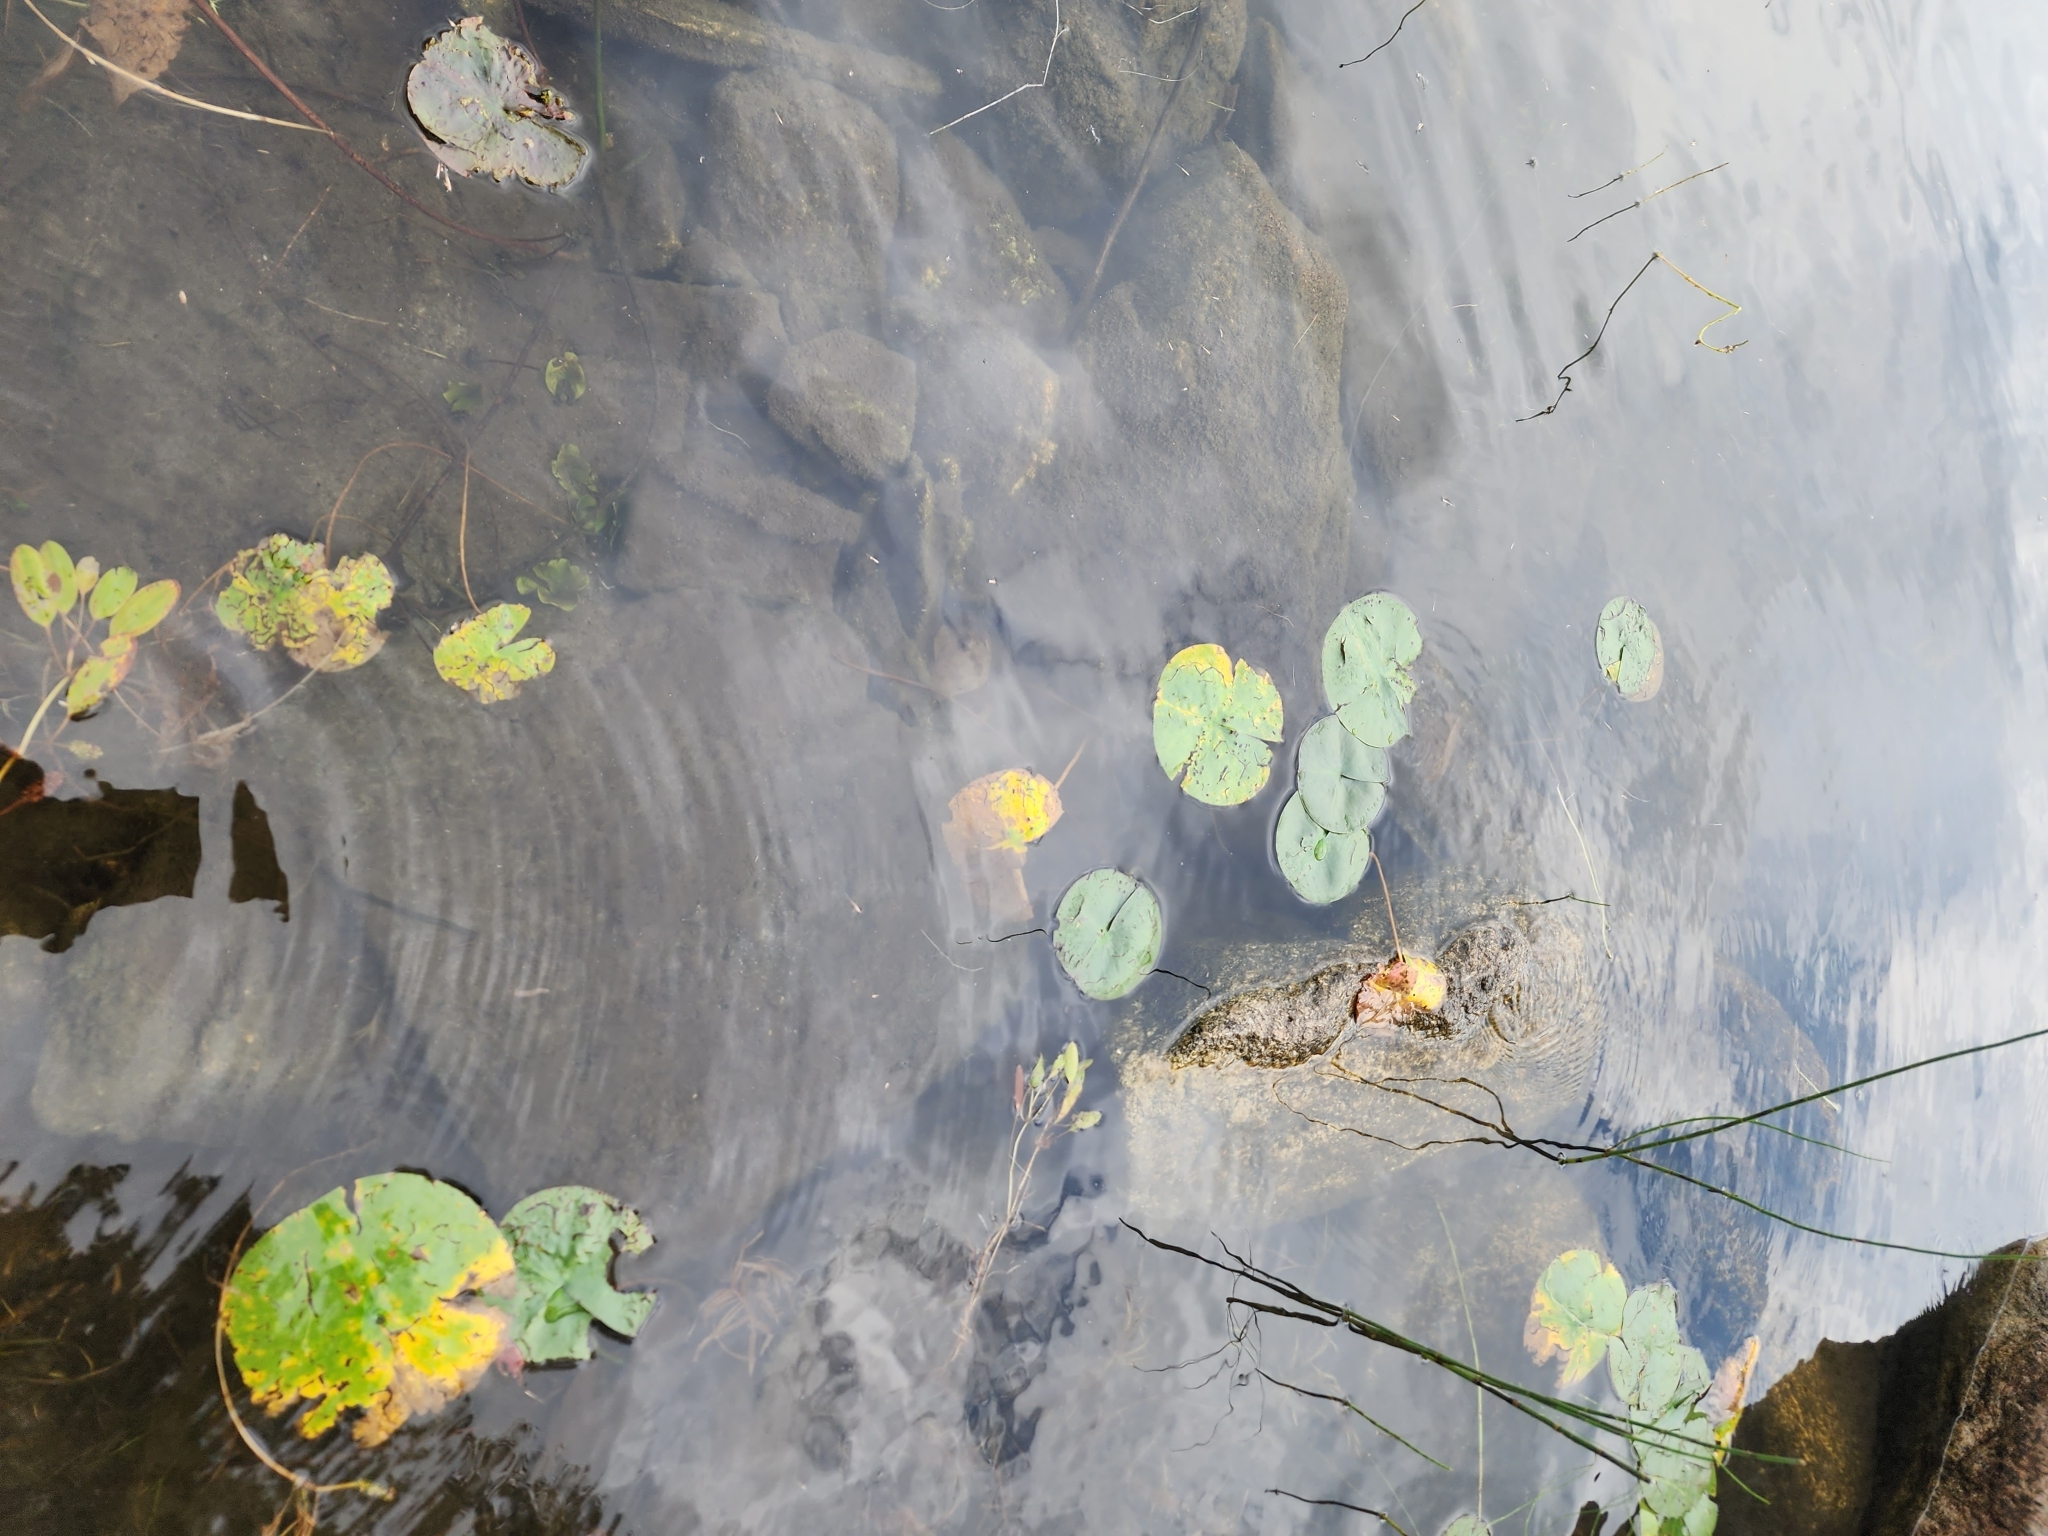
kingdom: Plantae
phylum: Tracheophyta
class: Magnoliopsida
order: Nymphaeales
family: Nymphaeaceae
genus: Nymphaea
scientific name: Nymphaea odorata
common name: Fragrant water-lily
